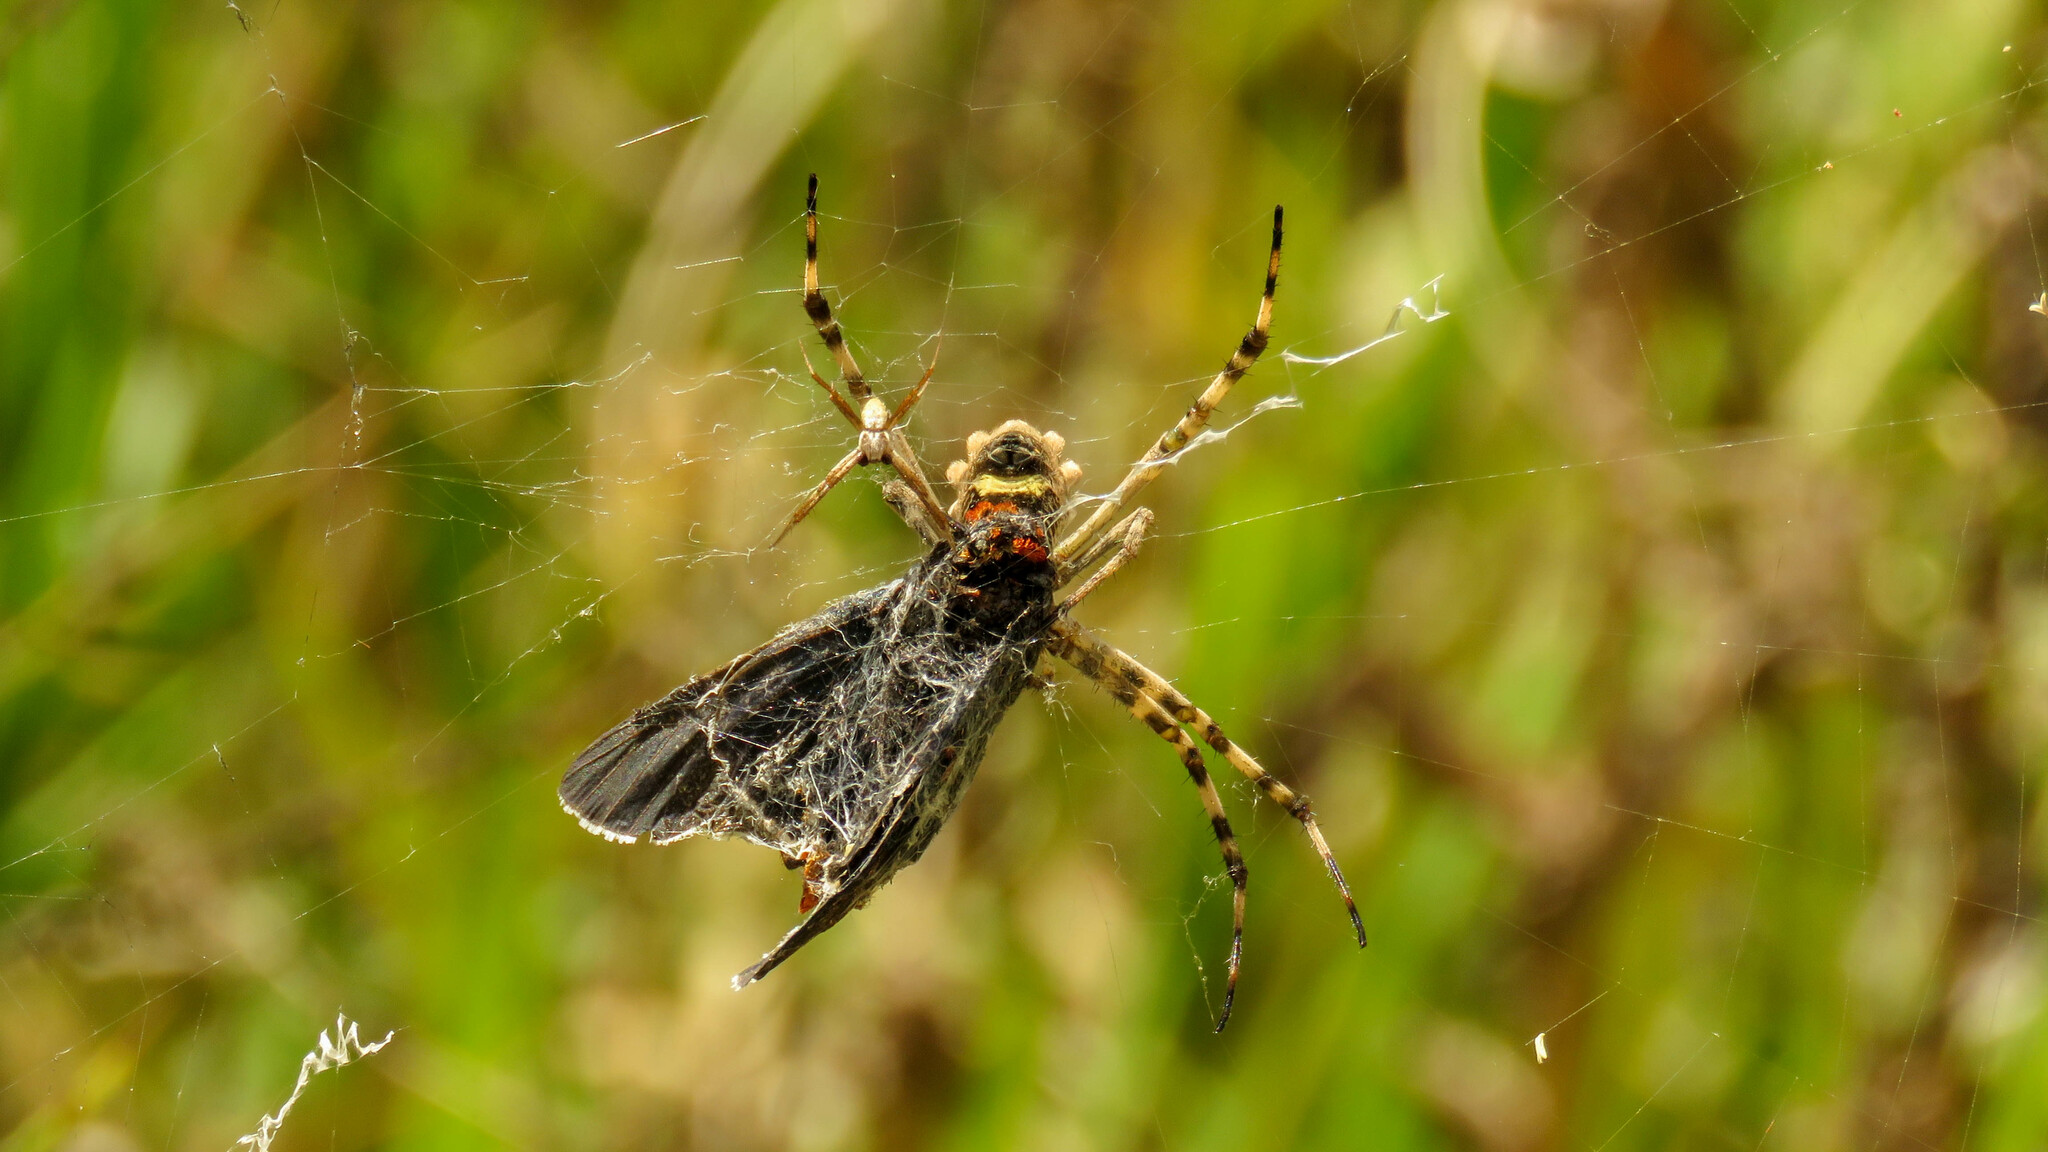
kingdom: Animalia
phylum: Arthropoda
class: Arachnida
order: Araneae
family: Araneidae
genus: Argiope
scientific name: Argiope argentata
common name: Orb weavers
